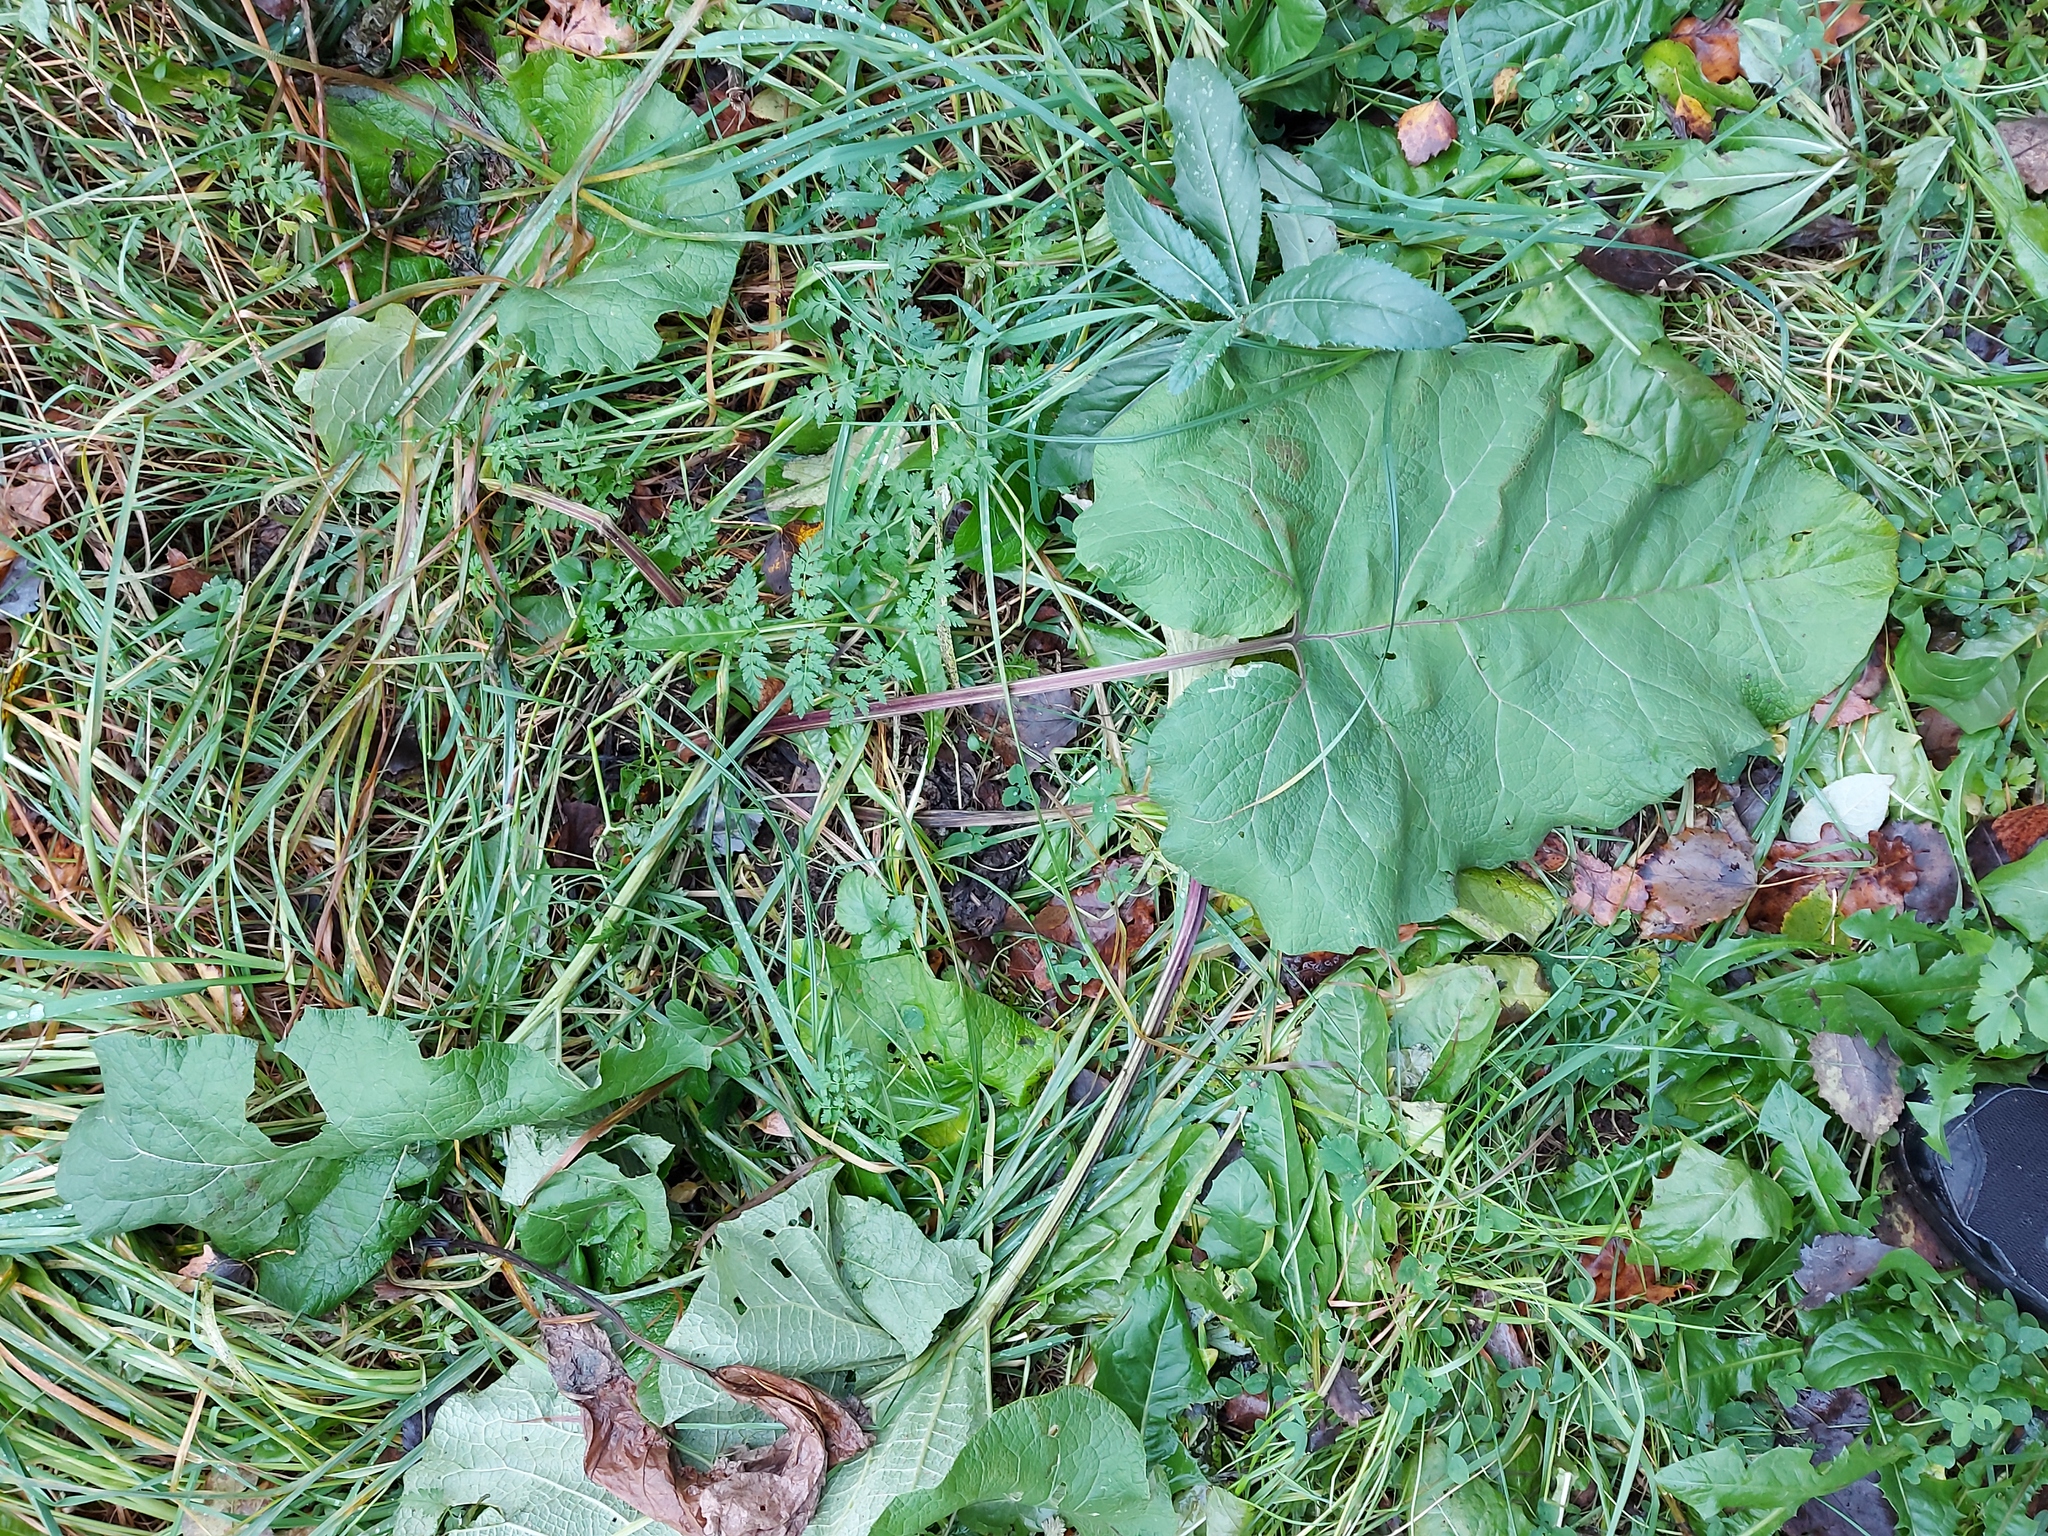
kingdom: Plantae
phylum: Tracheophyta
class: Magnoliopsida
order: Asterales
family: Asteraceae
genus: Arctium
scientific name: Arctium
